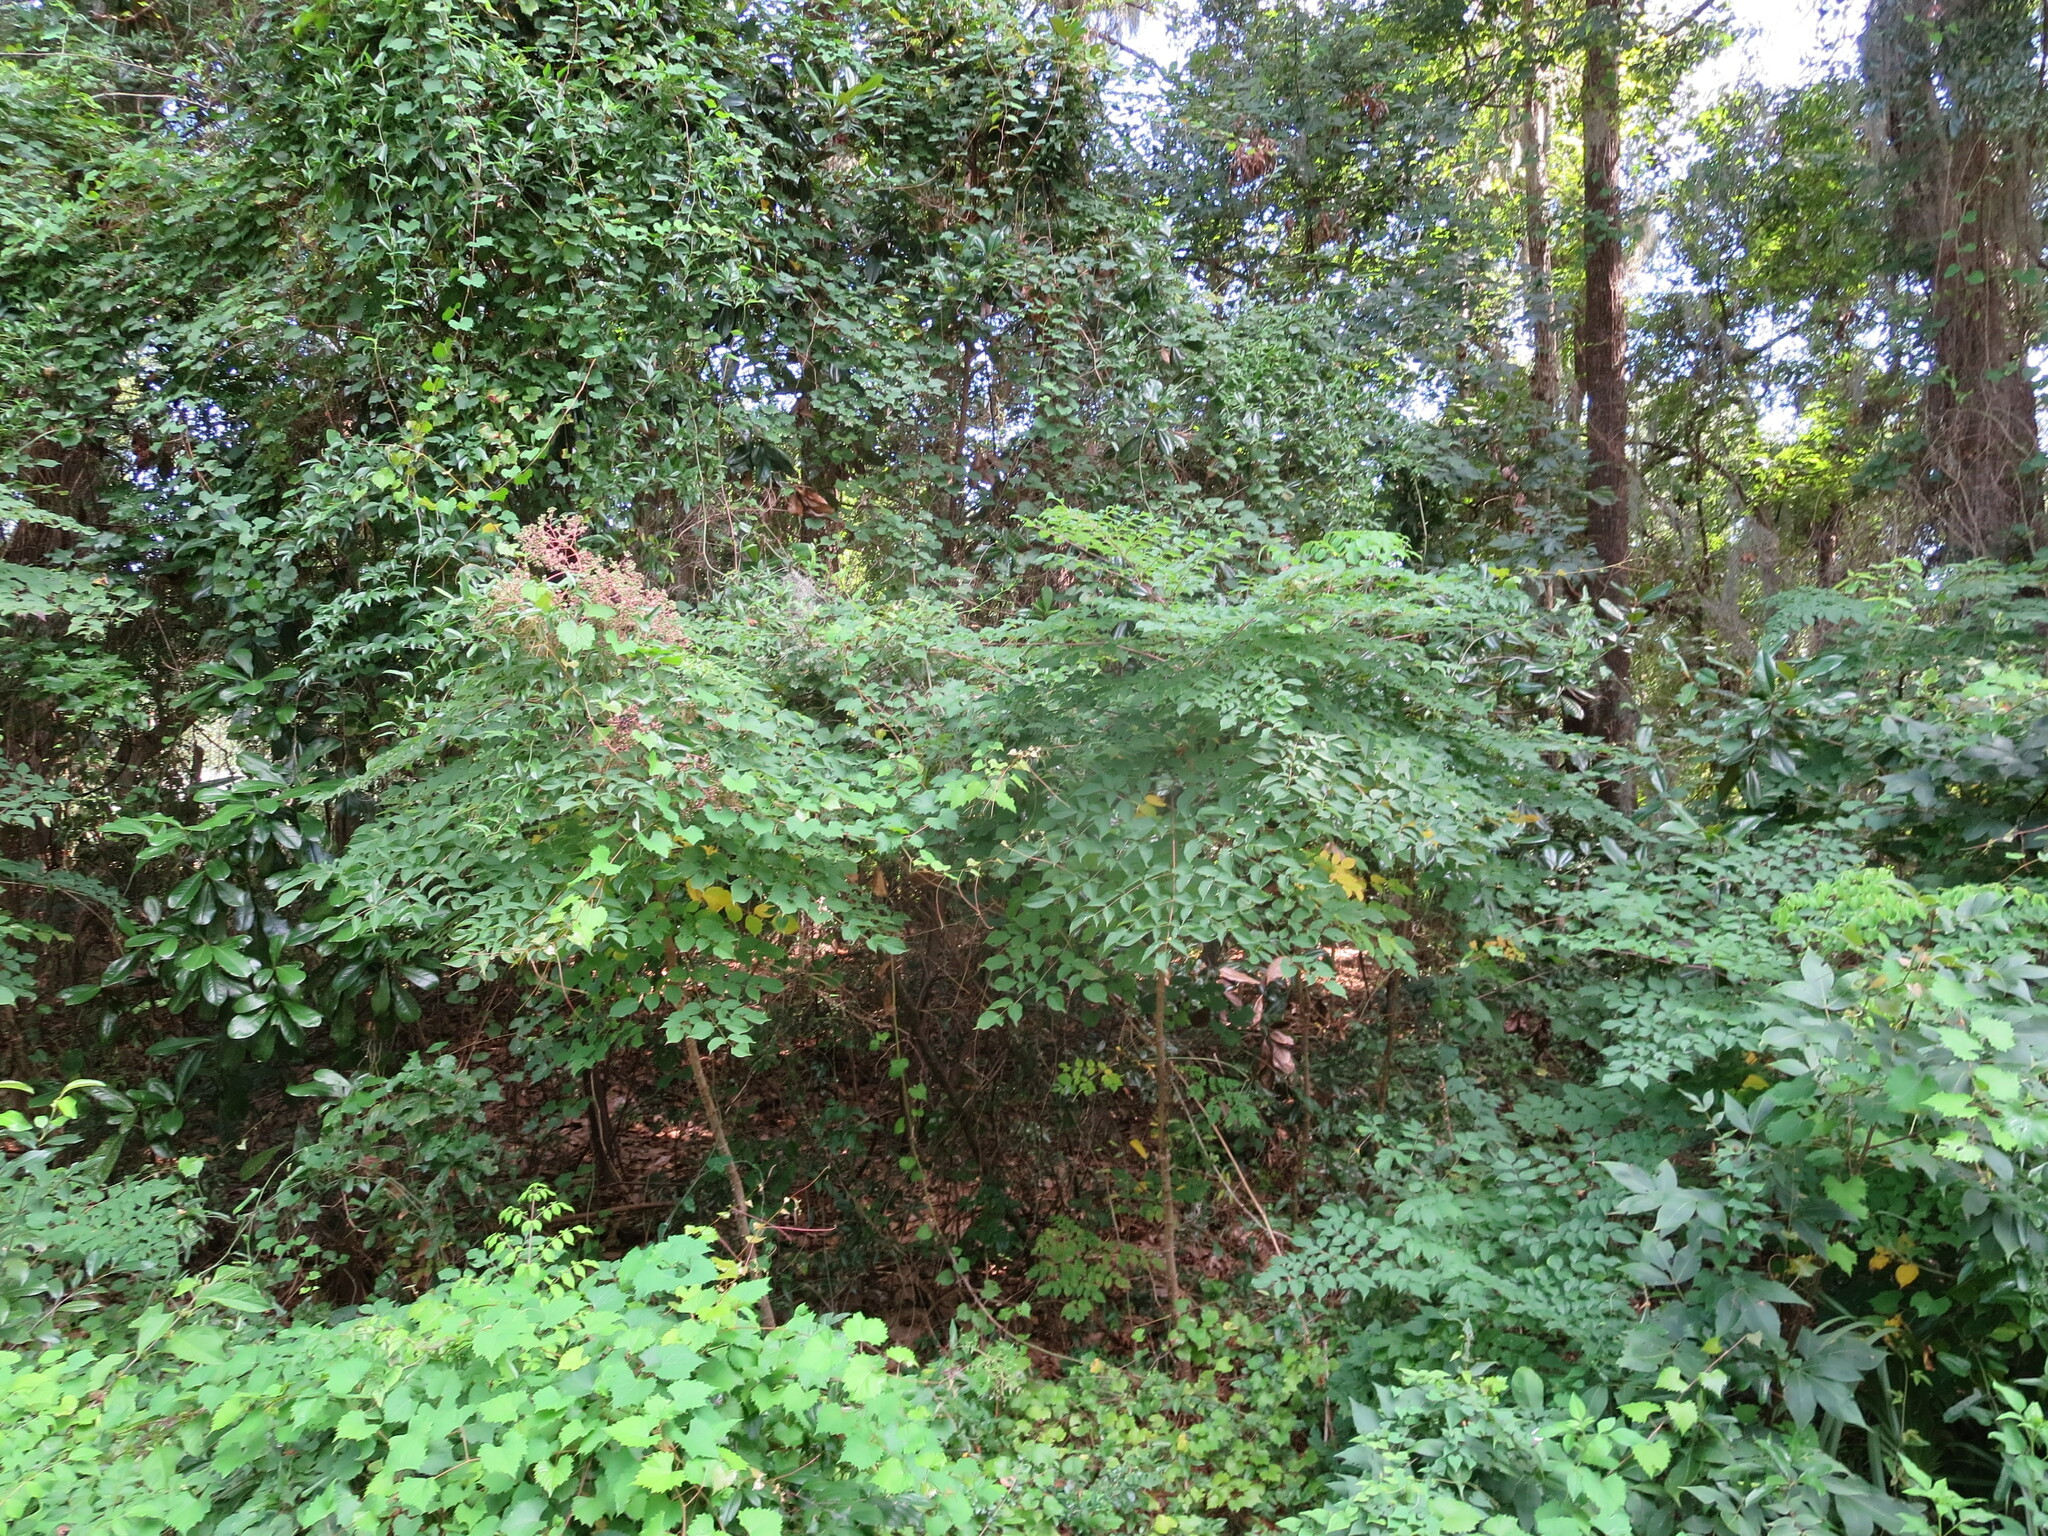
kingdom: Plantae
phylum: Tracheophyta
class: Magnoliopsida
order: Apiales
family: Araliaceae
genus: Aralia
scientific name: Aralia spinosa
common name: Hercules'-club
